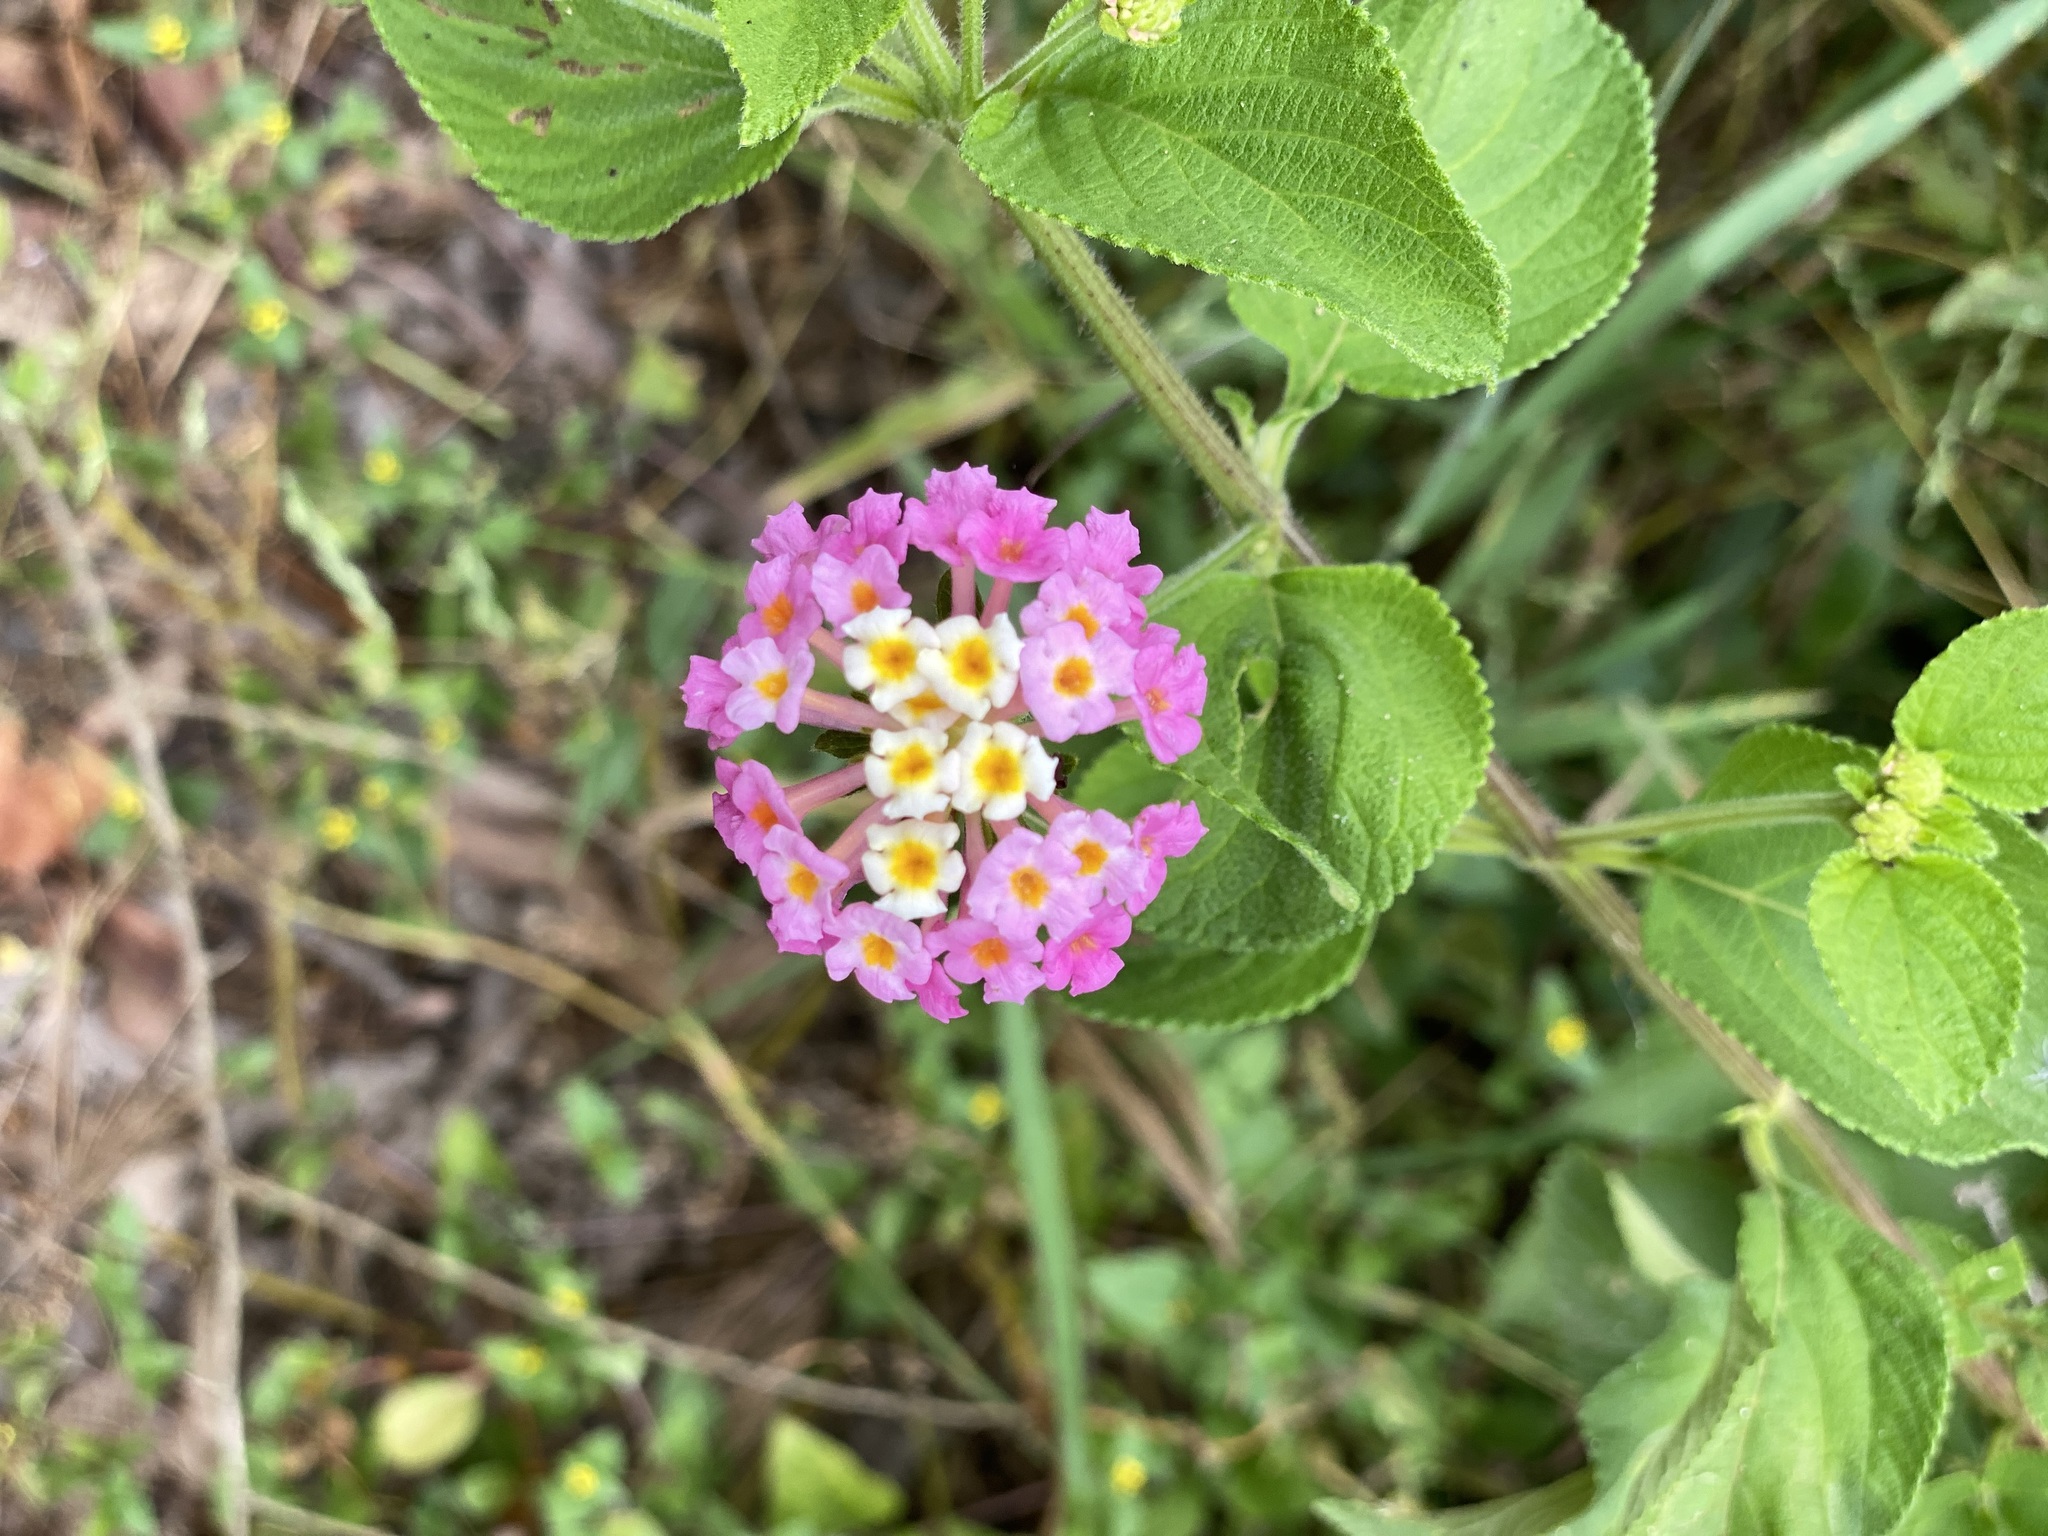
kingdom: Plantae
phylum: Tracheophyta
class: Magnoliopsida
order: Lamiales
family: Verbenaceae
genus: Lantana
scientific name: Lantana camara
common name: Lantana
